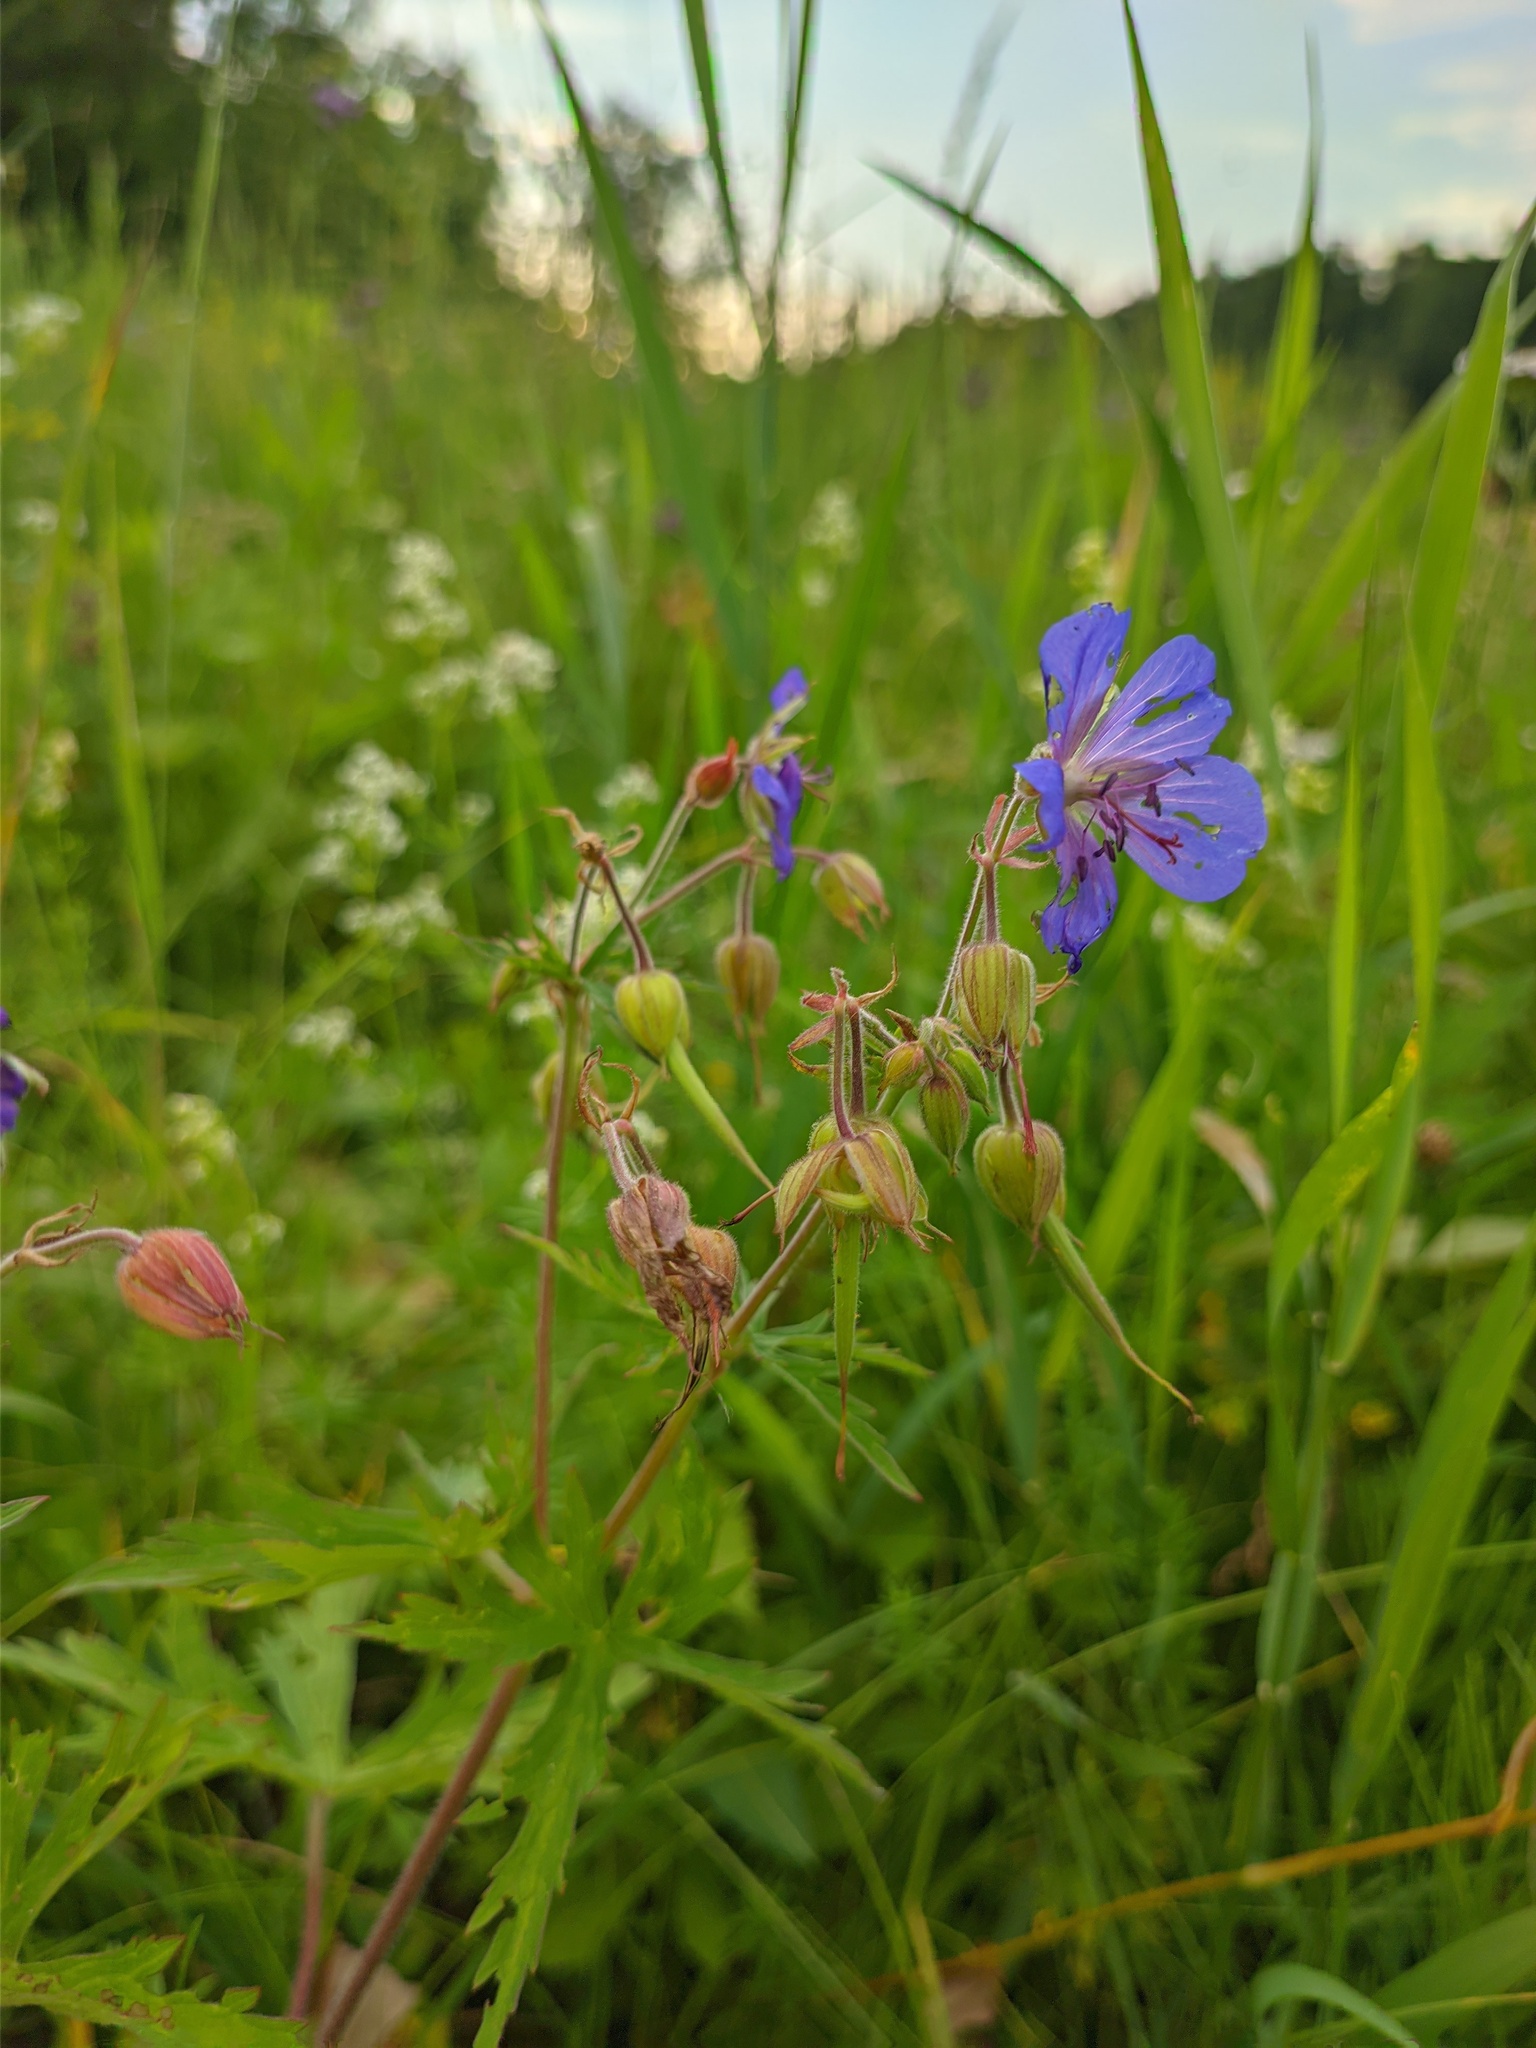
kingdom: Plantae
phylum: Tracheophyta
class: Magnoliopsida
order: Geraniales
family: Geraniaceae
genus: Geranium
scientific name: Geranium pratense
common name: Meadow crane's-bill
